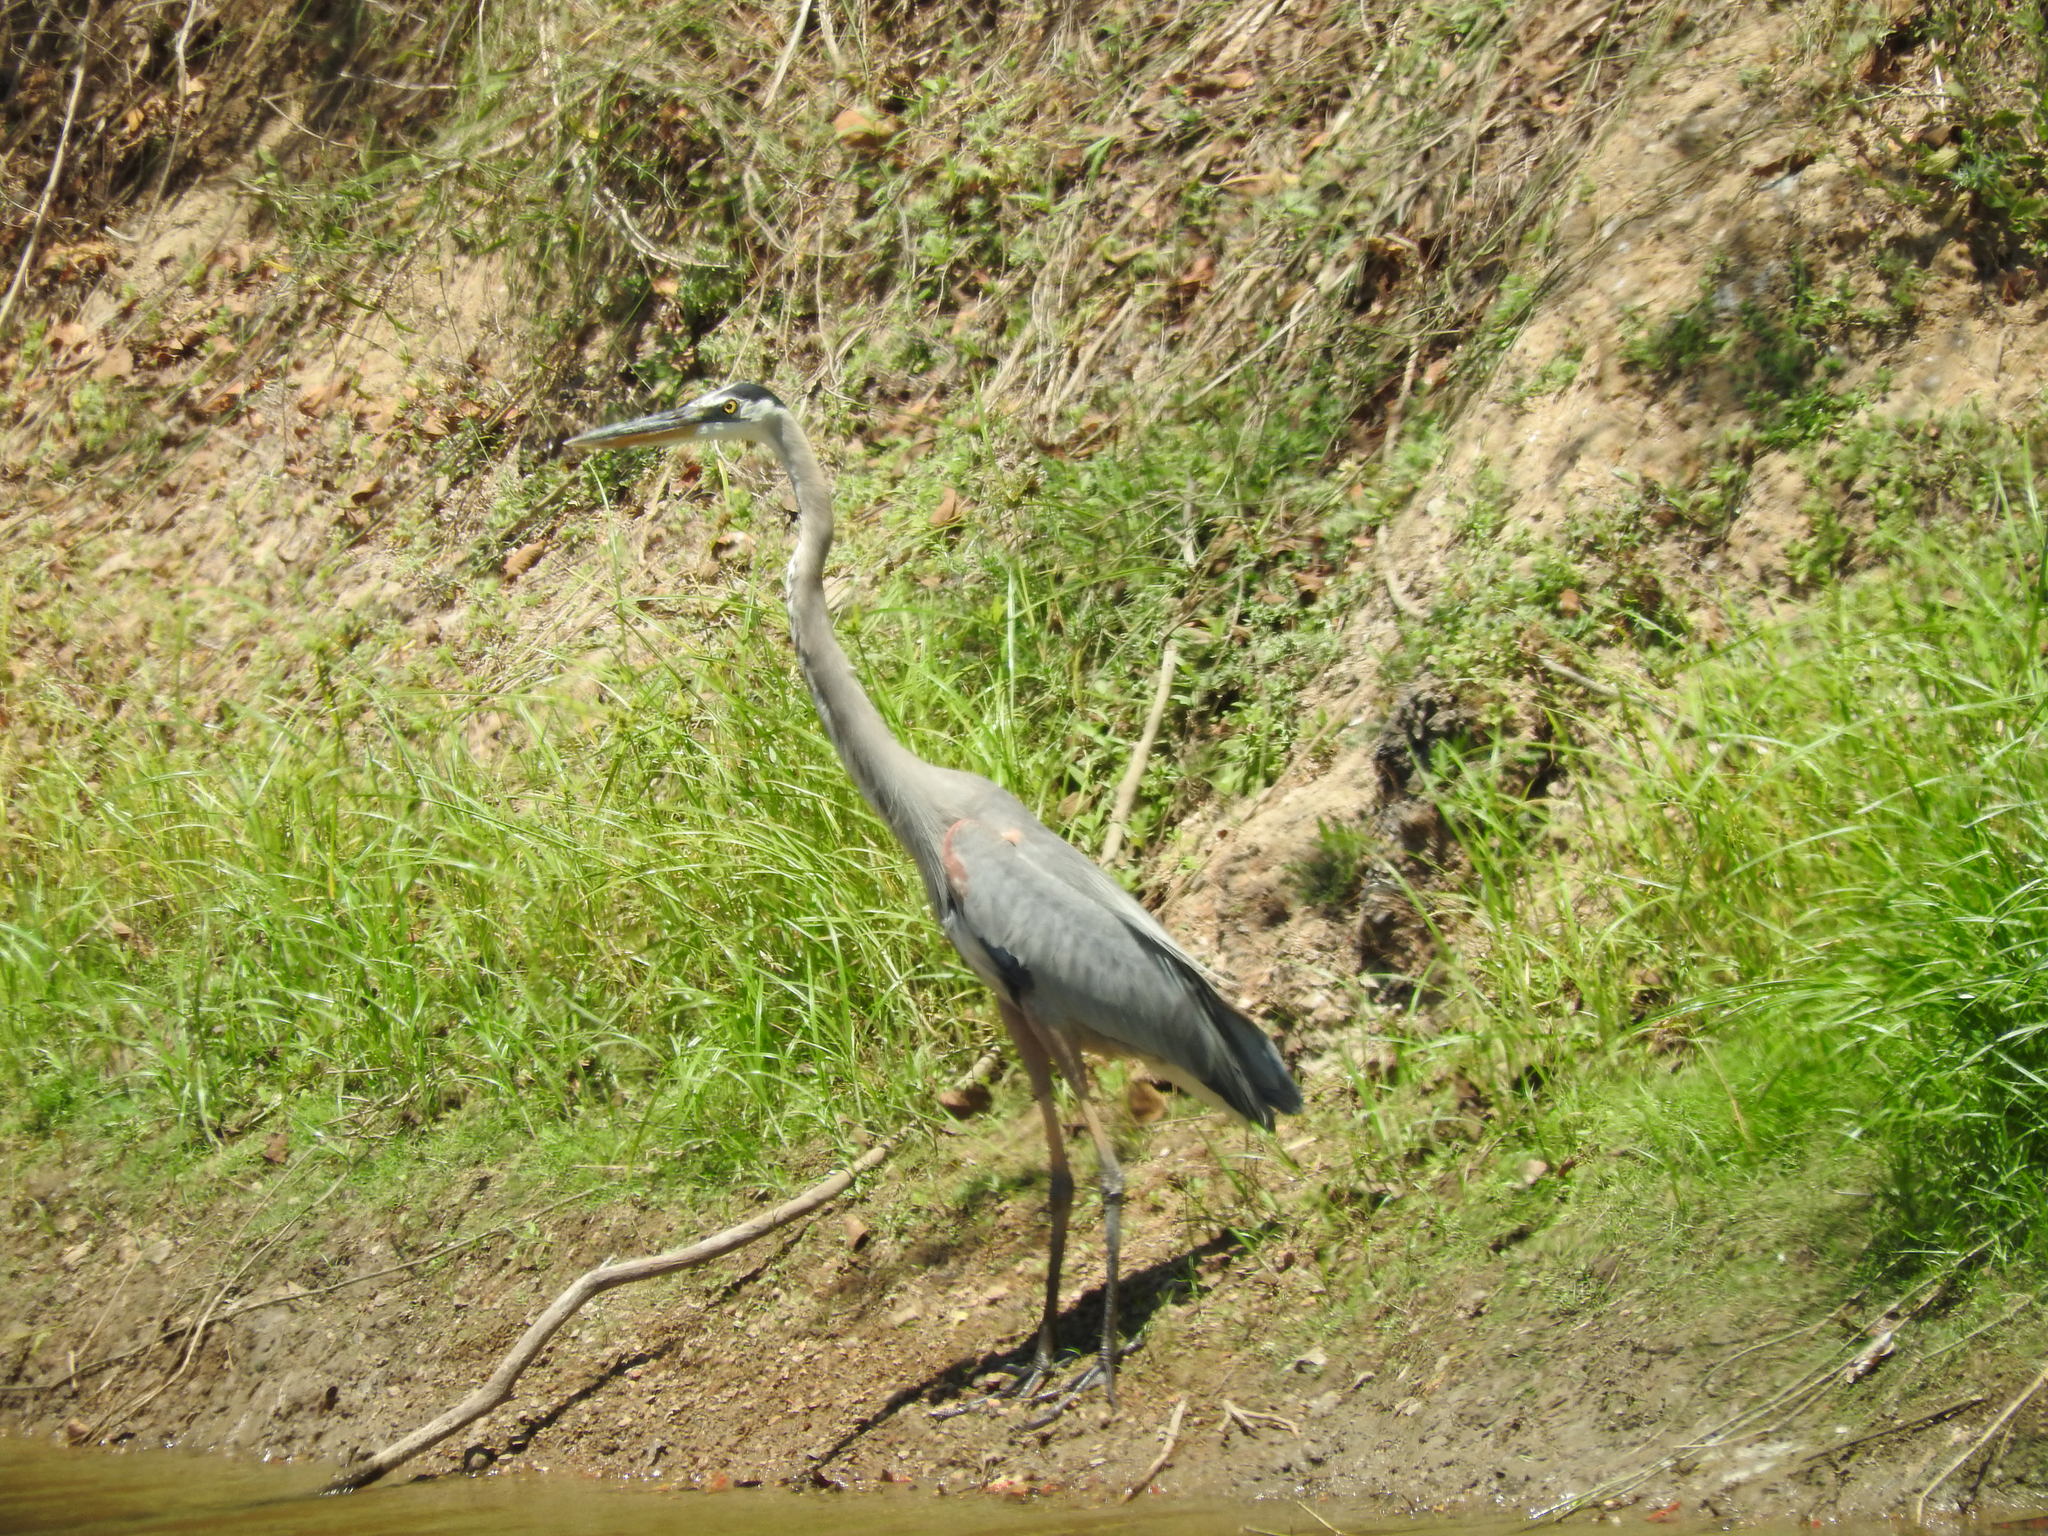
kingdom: Animalia
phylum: Chordata
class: Aves
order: Pelecaniformes
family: Ardeidae
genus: Ardea
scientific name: Ardea herodias
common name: Great blue heron
